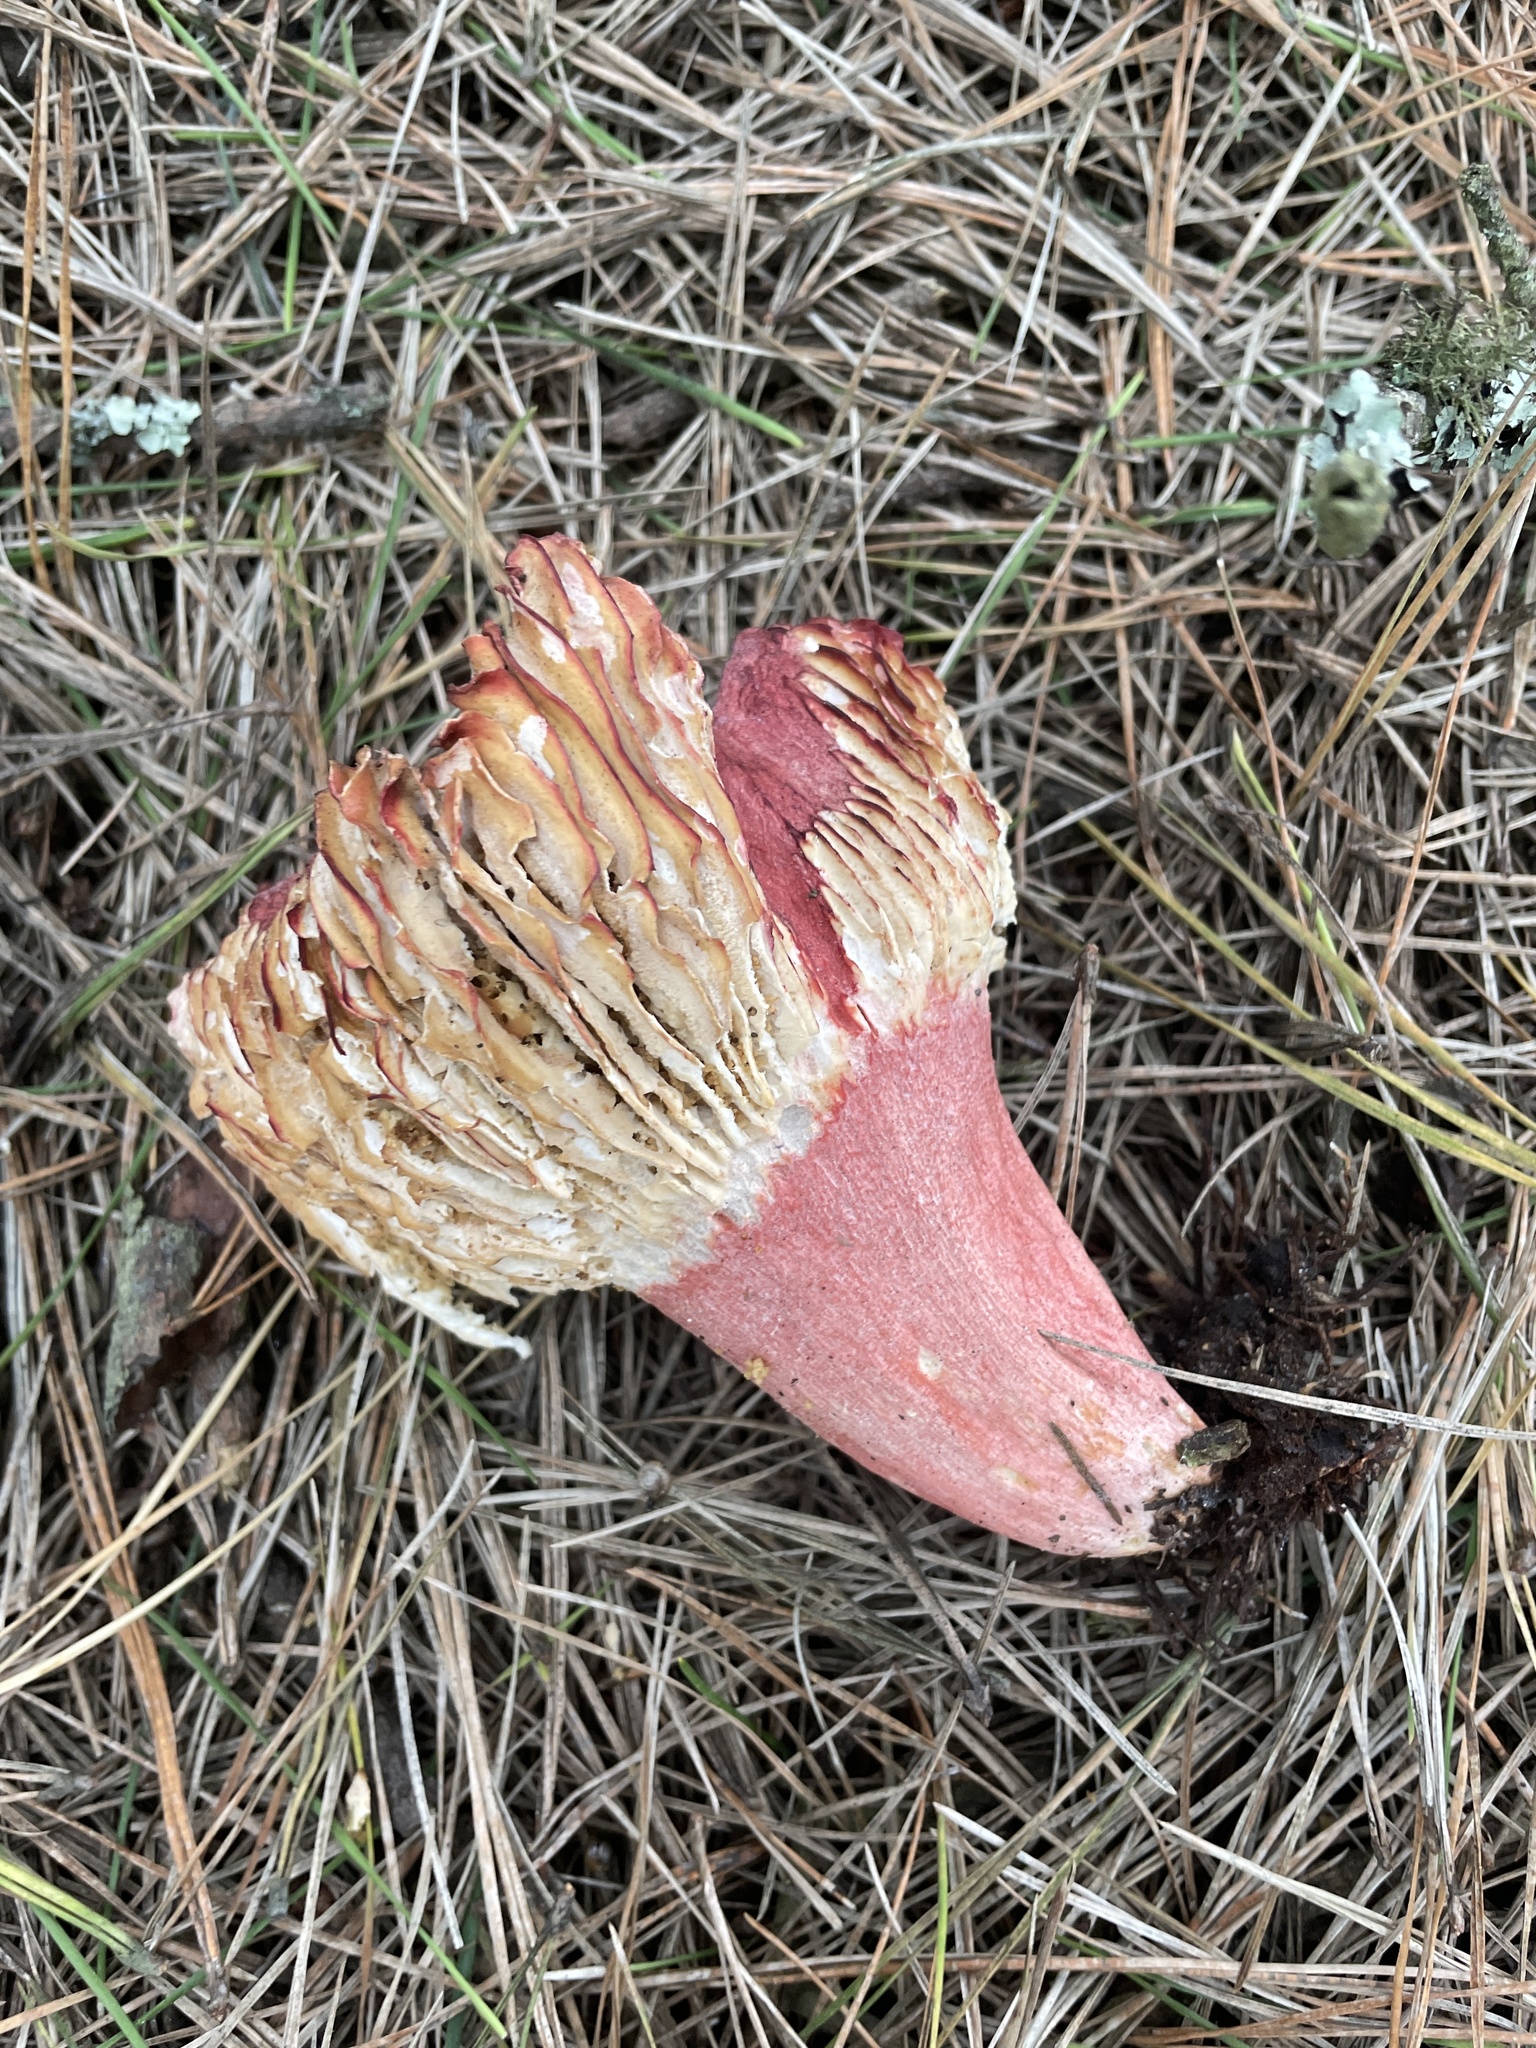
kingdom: Fungi
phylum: Basidiomycota
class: Agaricomycetes
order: Russulales
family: Russulaceae
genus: Russula
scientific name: Russula rhodocephala
